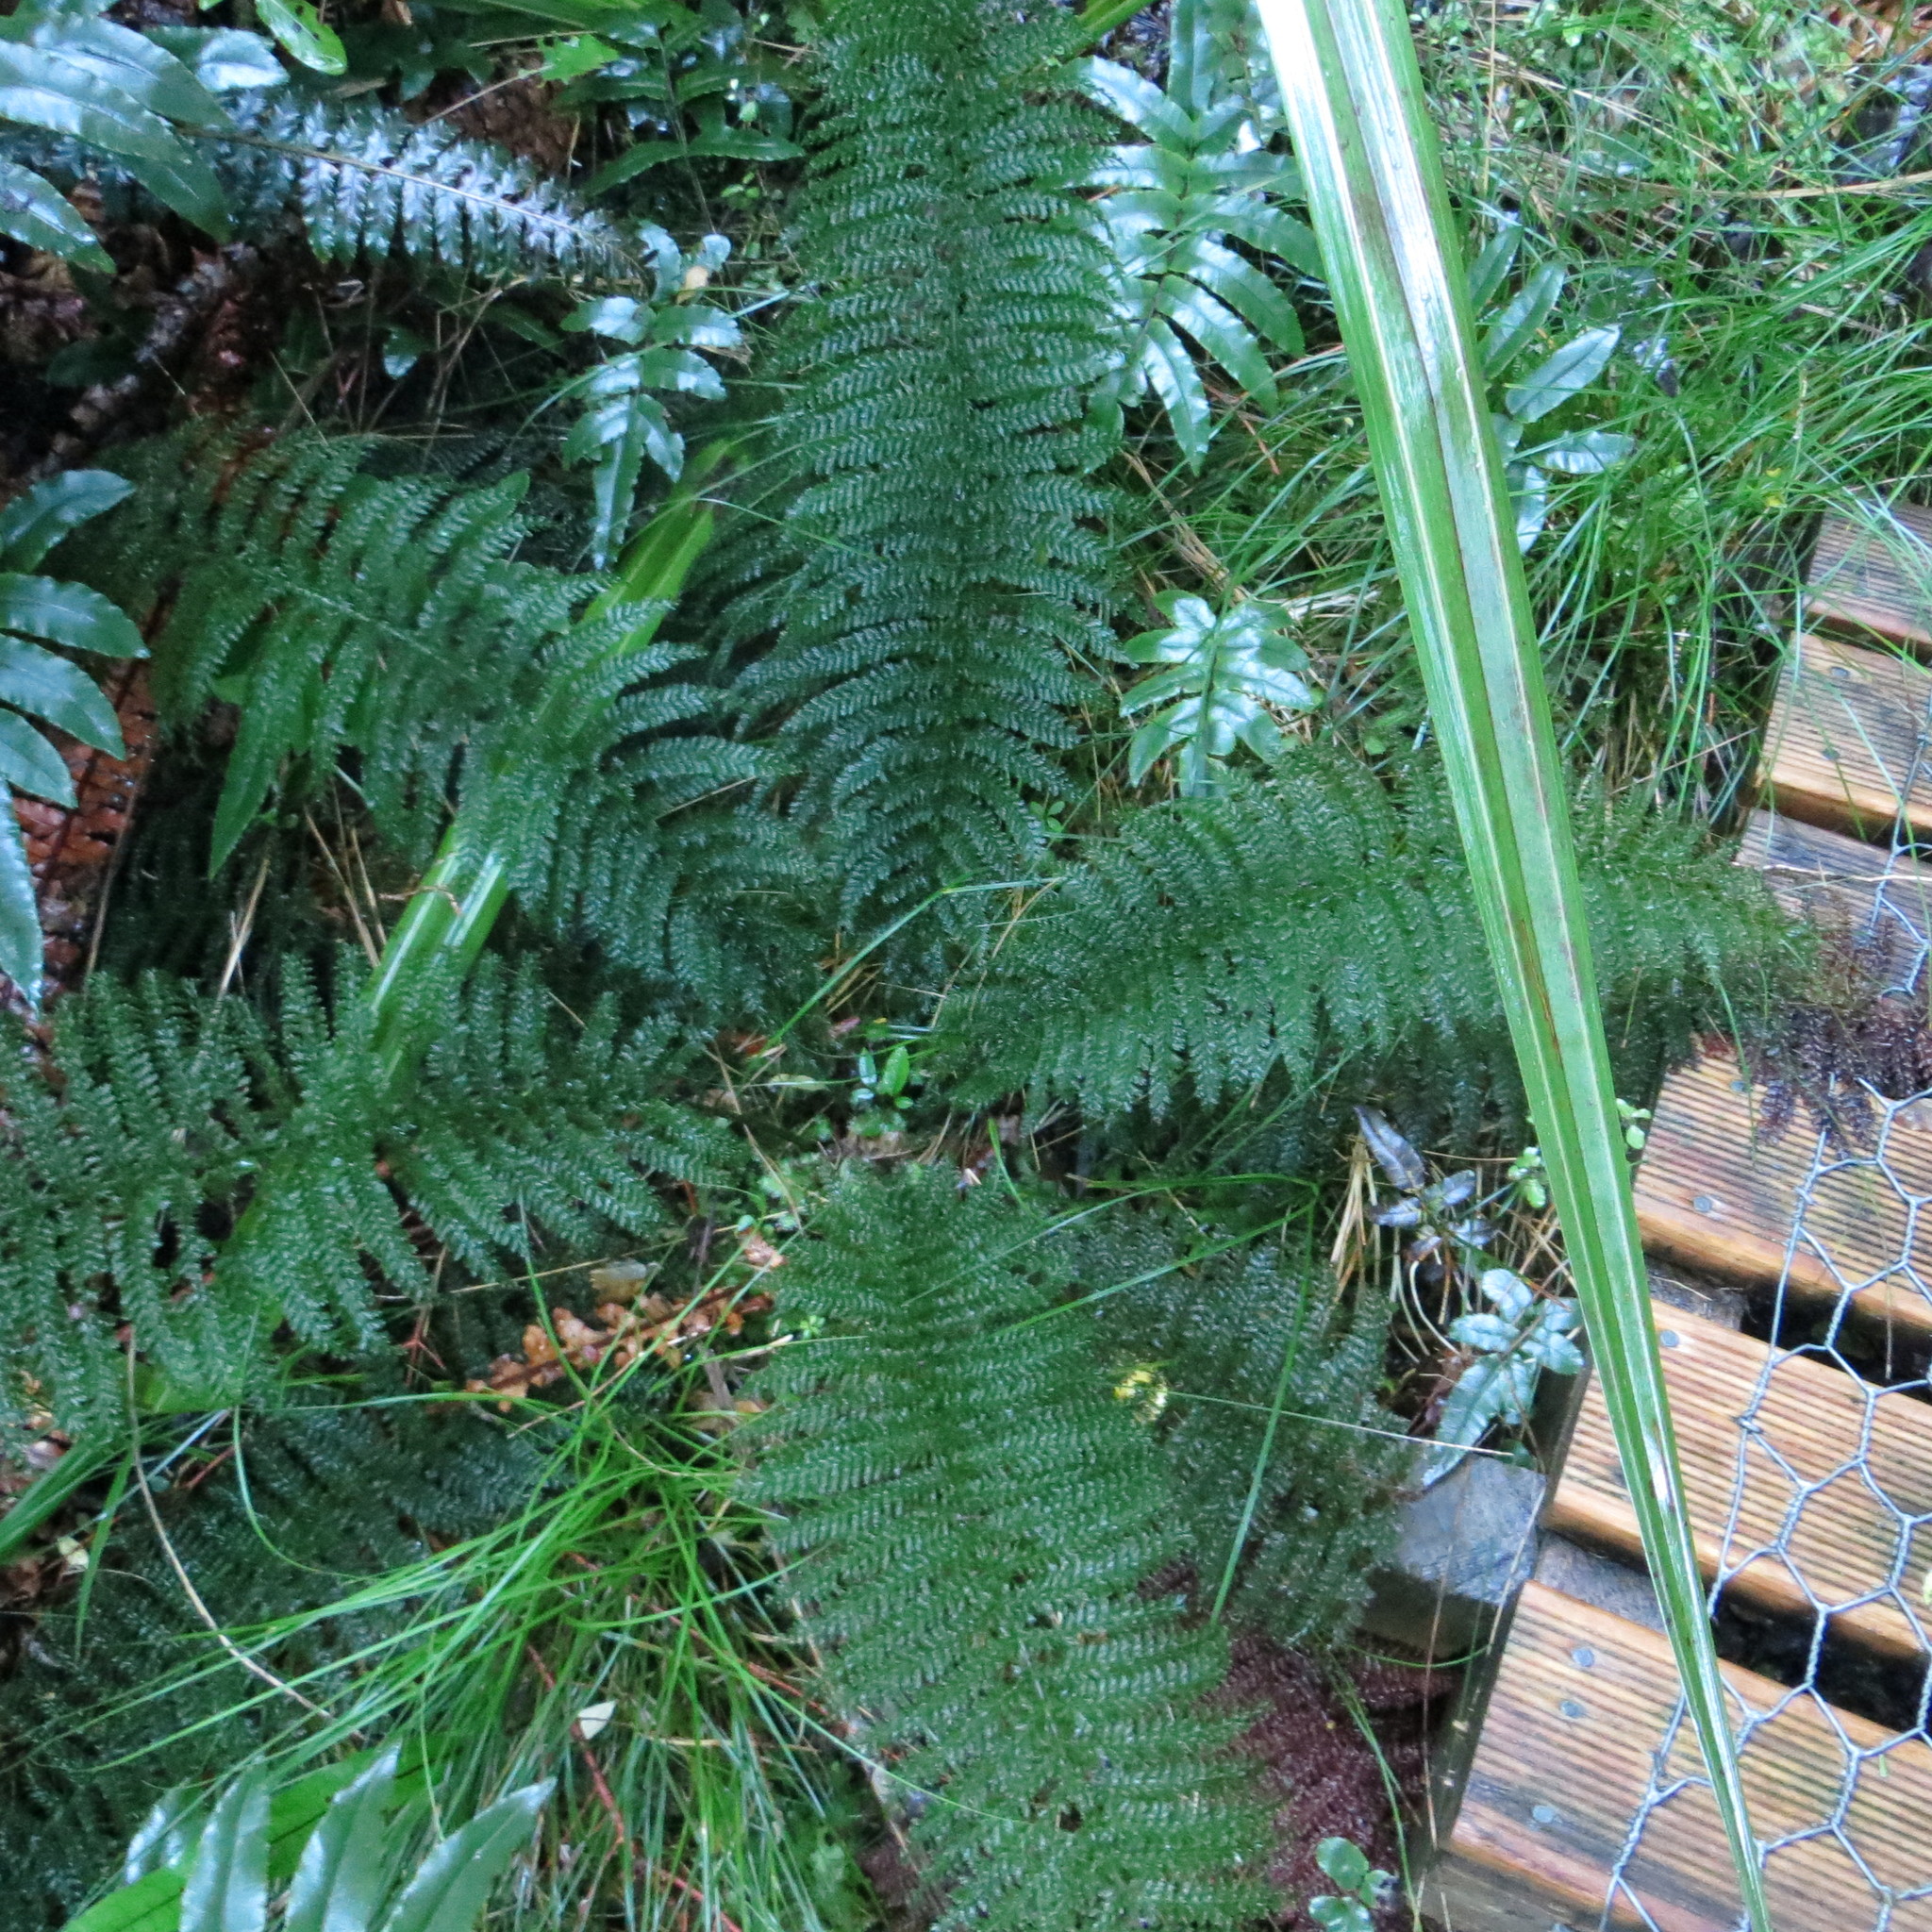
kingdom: Plantae
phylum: Tracheophyta
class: Polypodiopsida
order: Osmundales
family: Osmundaceae
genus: Leptopteris
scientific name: Leptopteris superba
